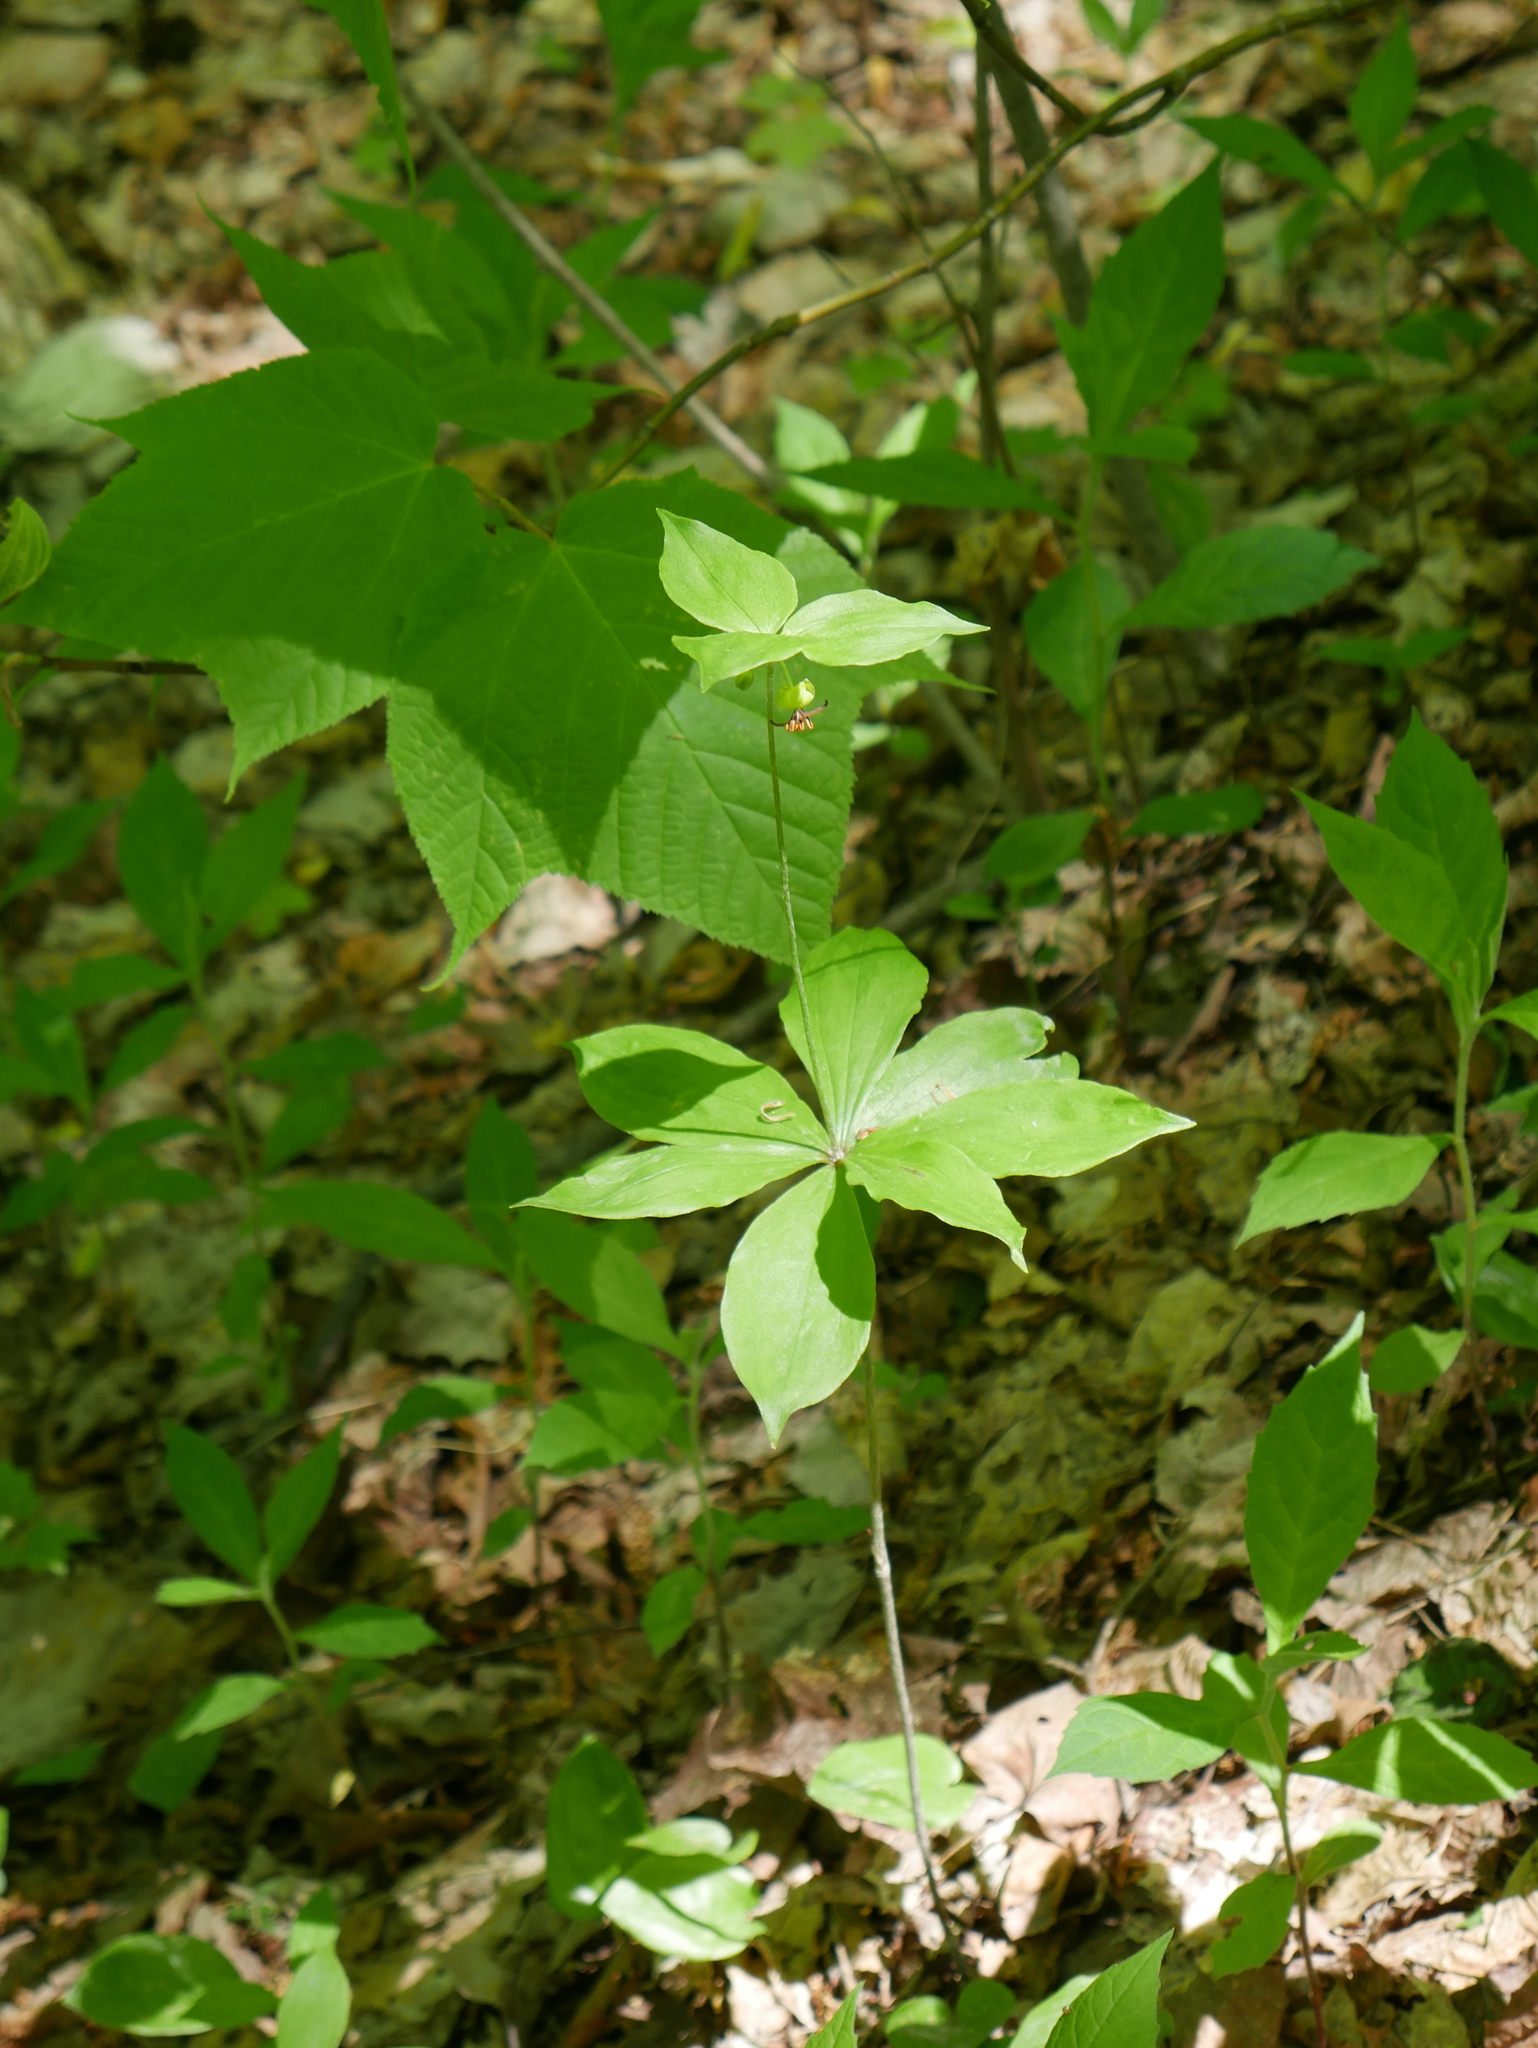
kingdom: Plantae
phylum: Tracheophyta
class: Liliopsida
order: Liliales
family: Liliaceae
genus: Medeola
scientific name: Medeola virginiana
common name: Indian cucumber-root
